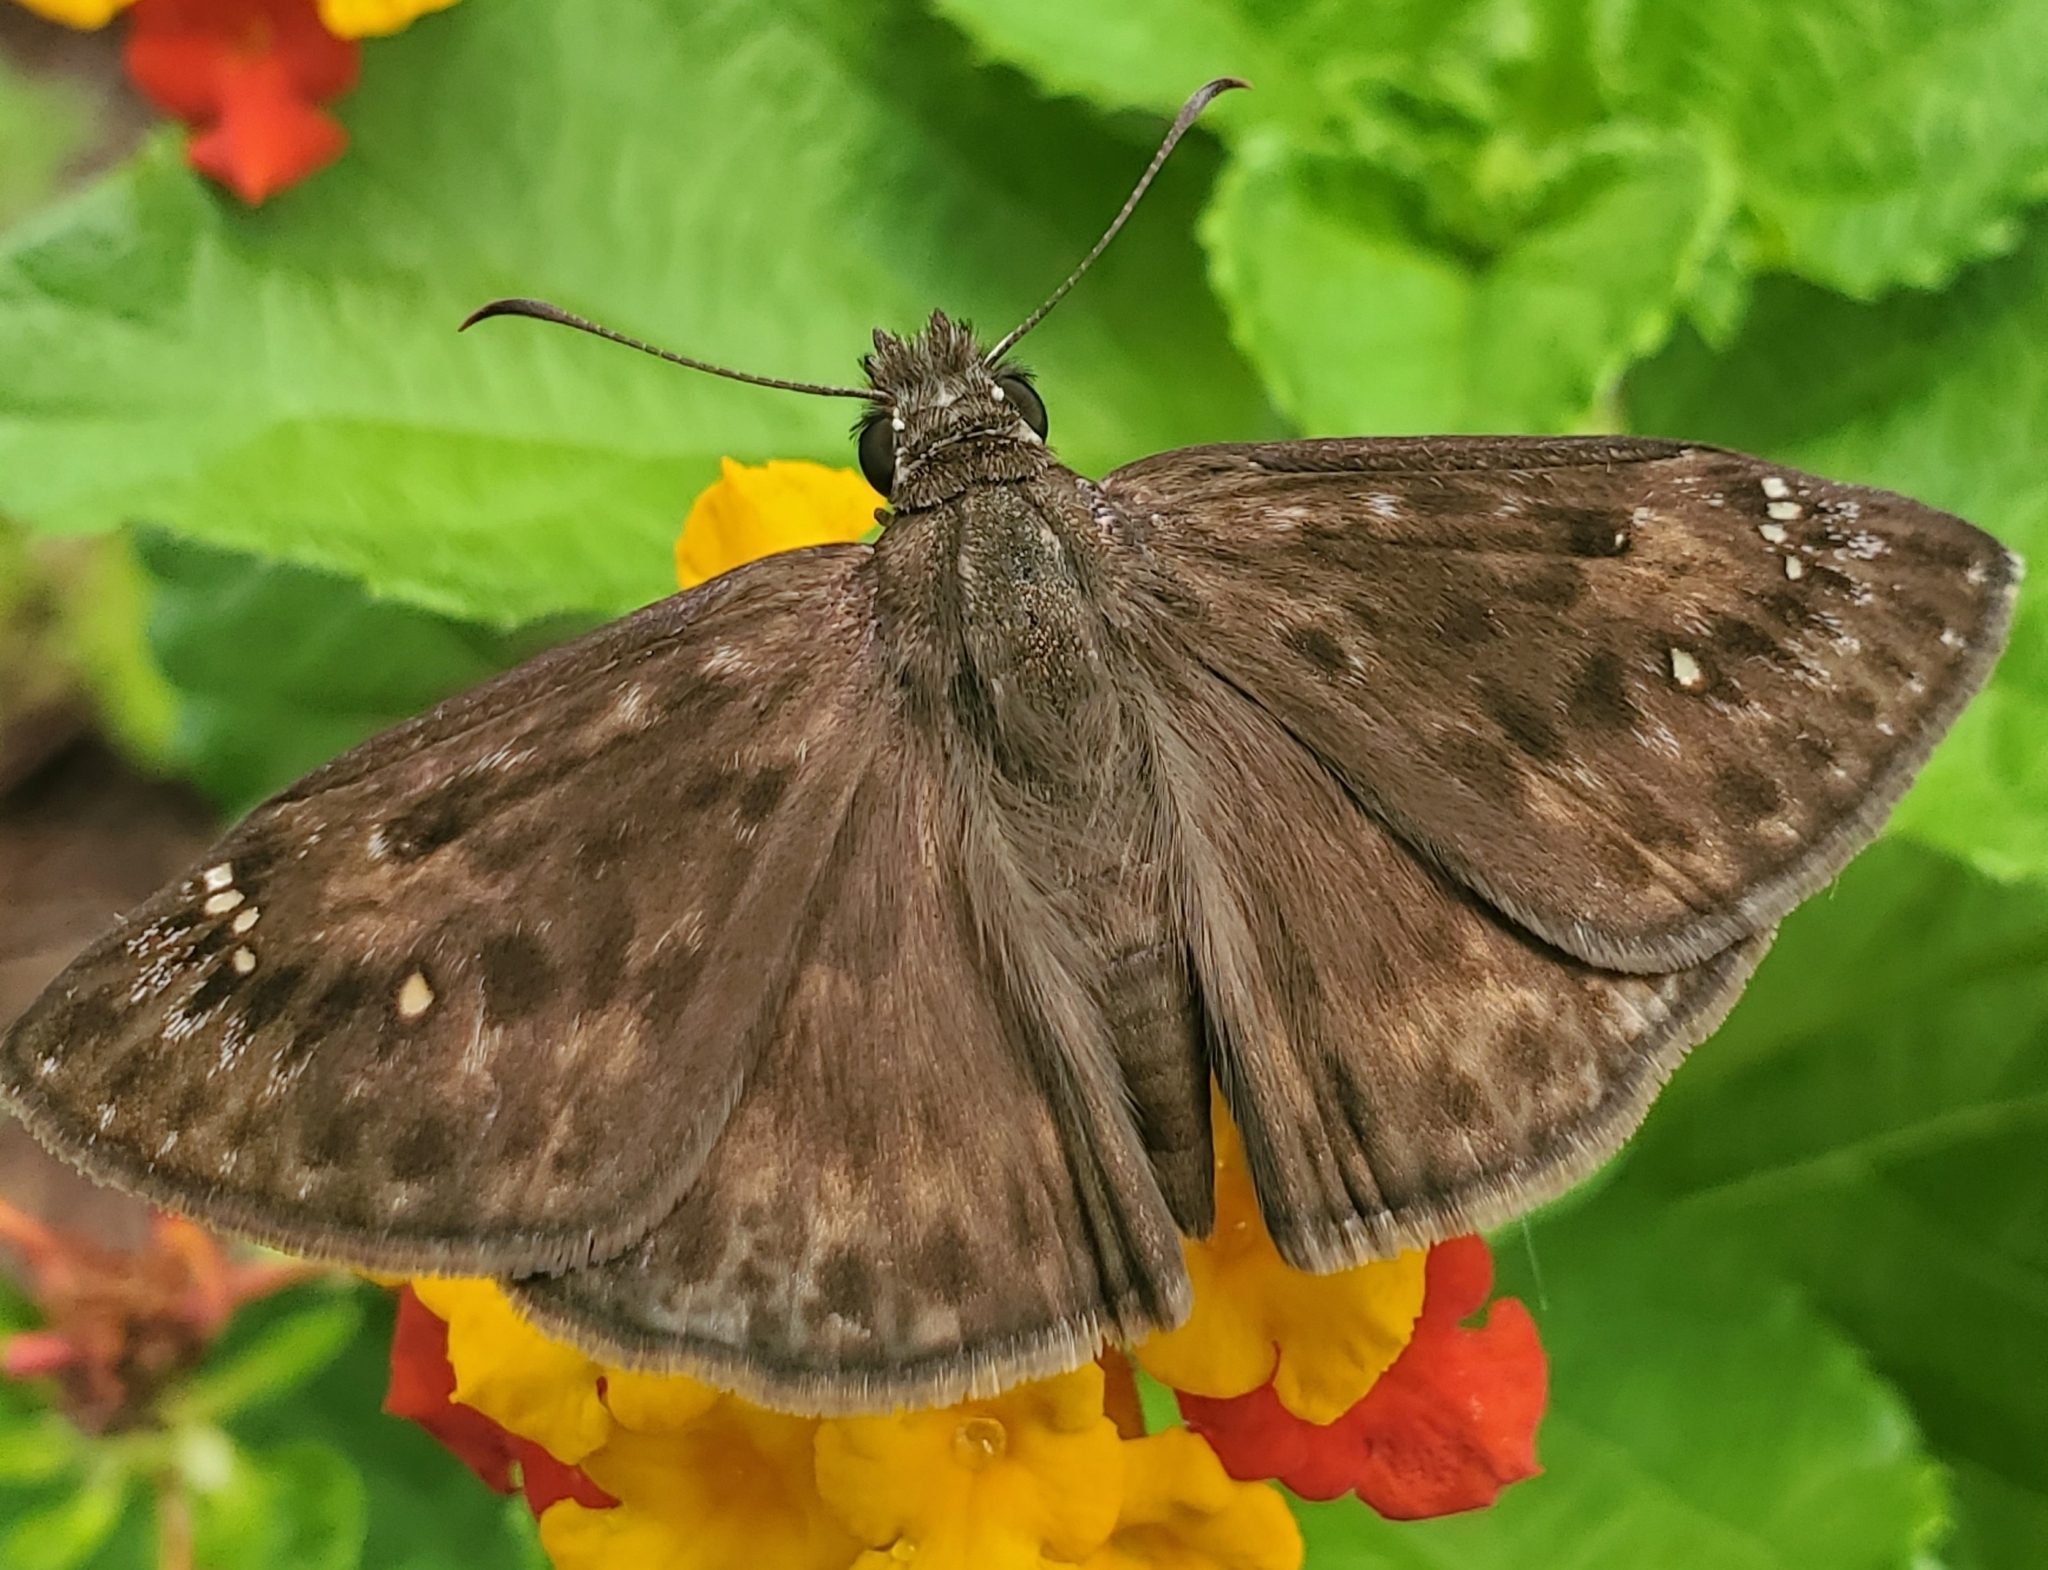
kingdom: Animalia
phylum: Arthropoda
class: Insecta
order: Lepidoptera
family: Hesperiidae
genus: Erynnis
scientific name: Erynnis horatius
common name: Horace's duskywing
